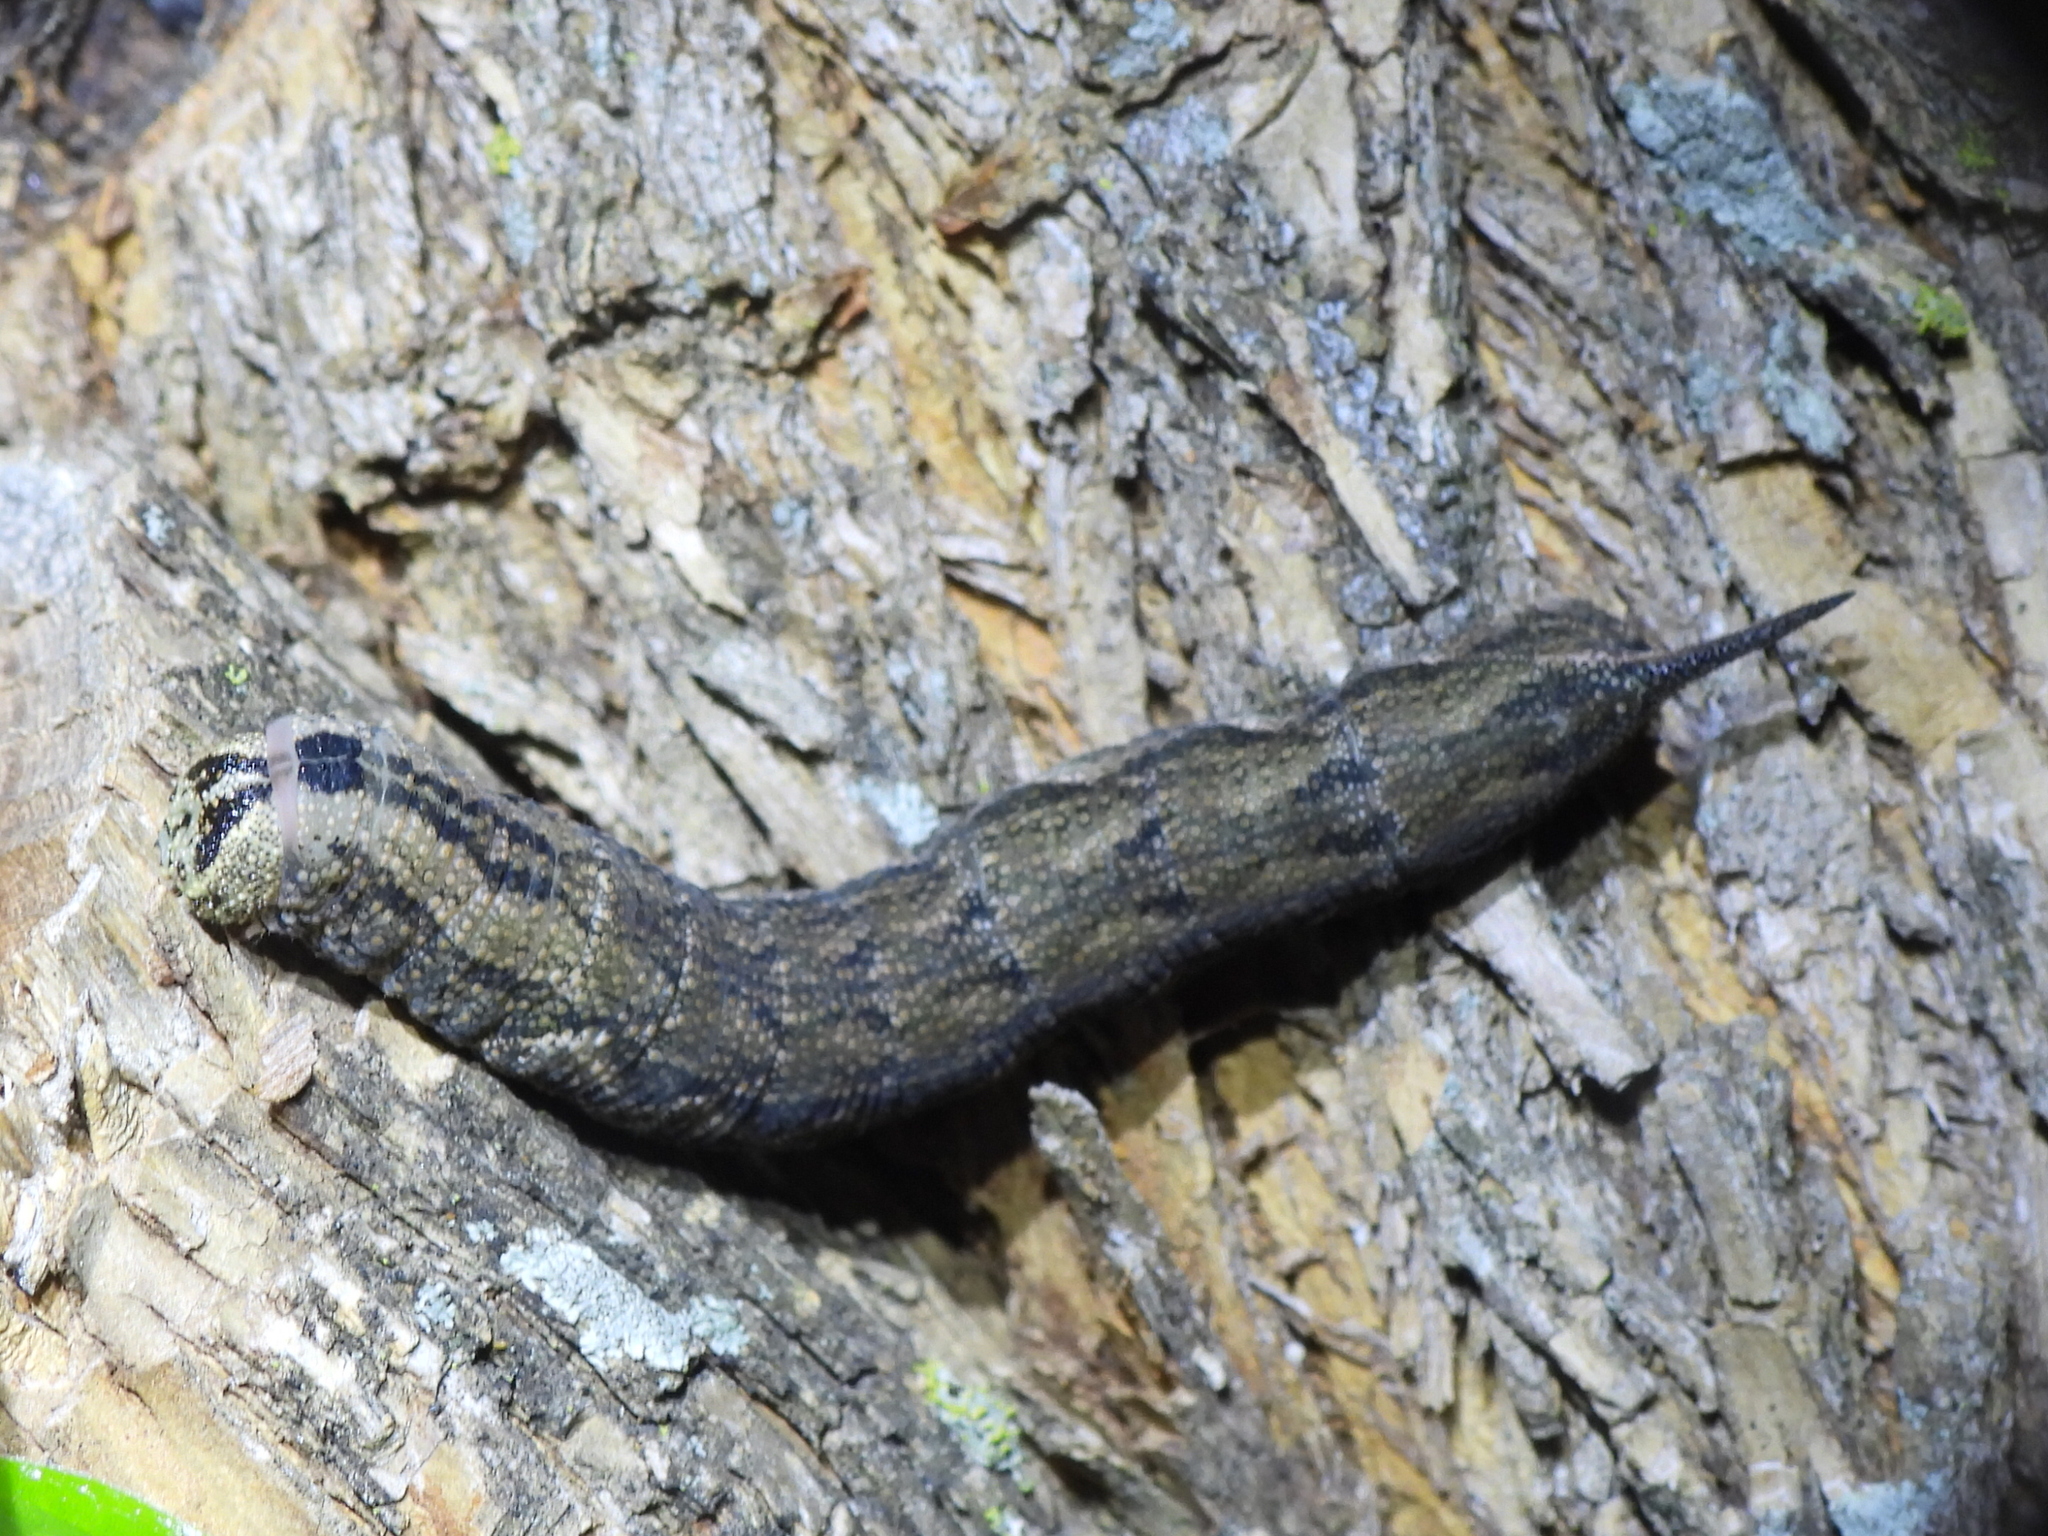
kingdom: Animalia
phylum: Arthropoda
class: Insecta
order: Lepidoptera
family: Sphingidae
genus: Ceratomia
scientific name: Ceratomia hageni
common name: Hagen's sphinx
